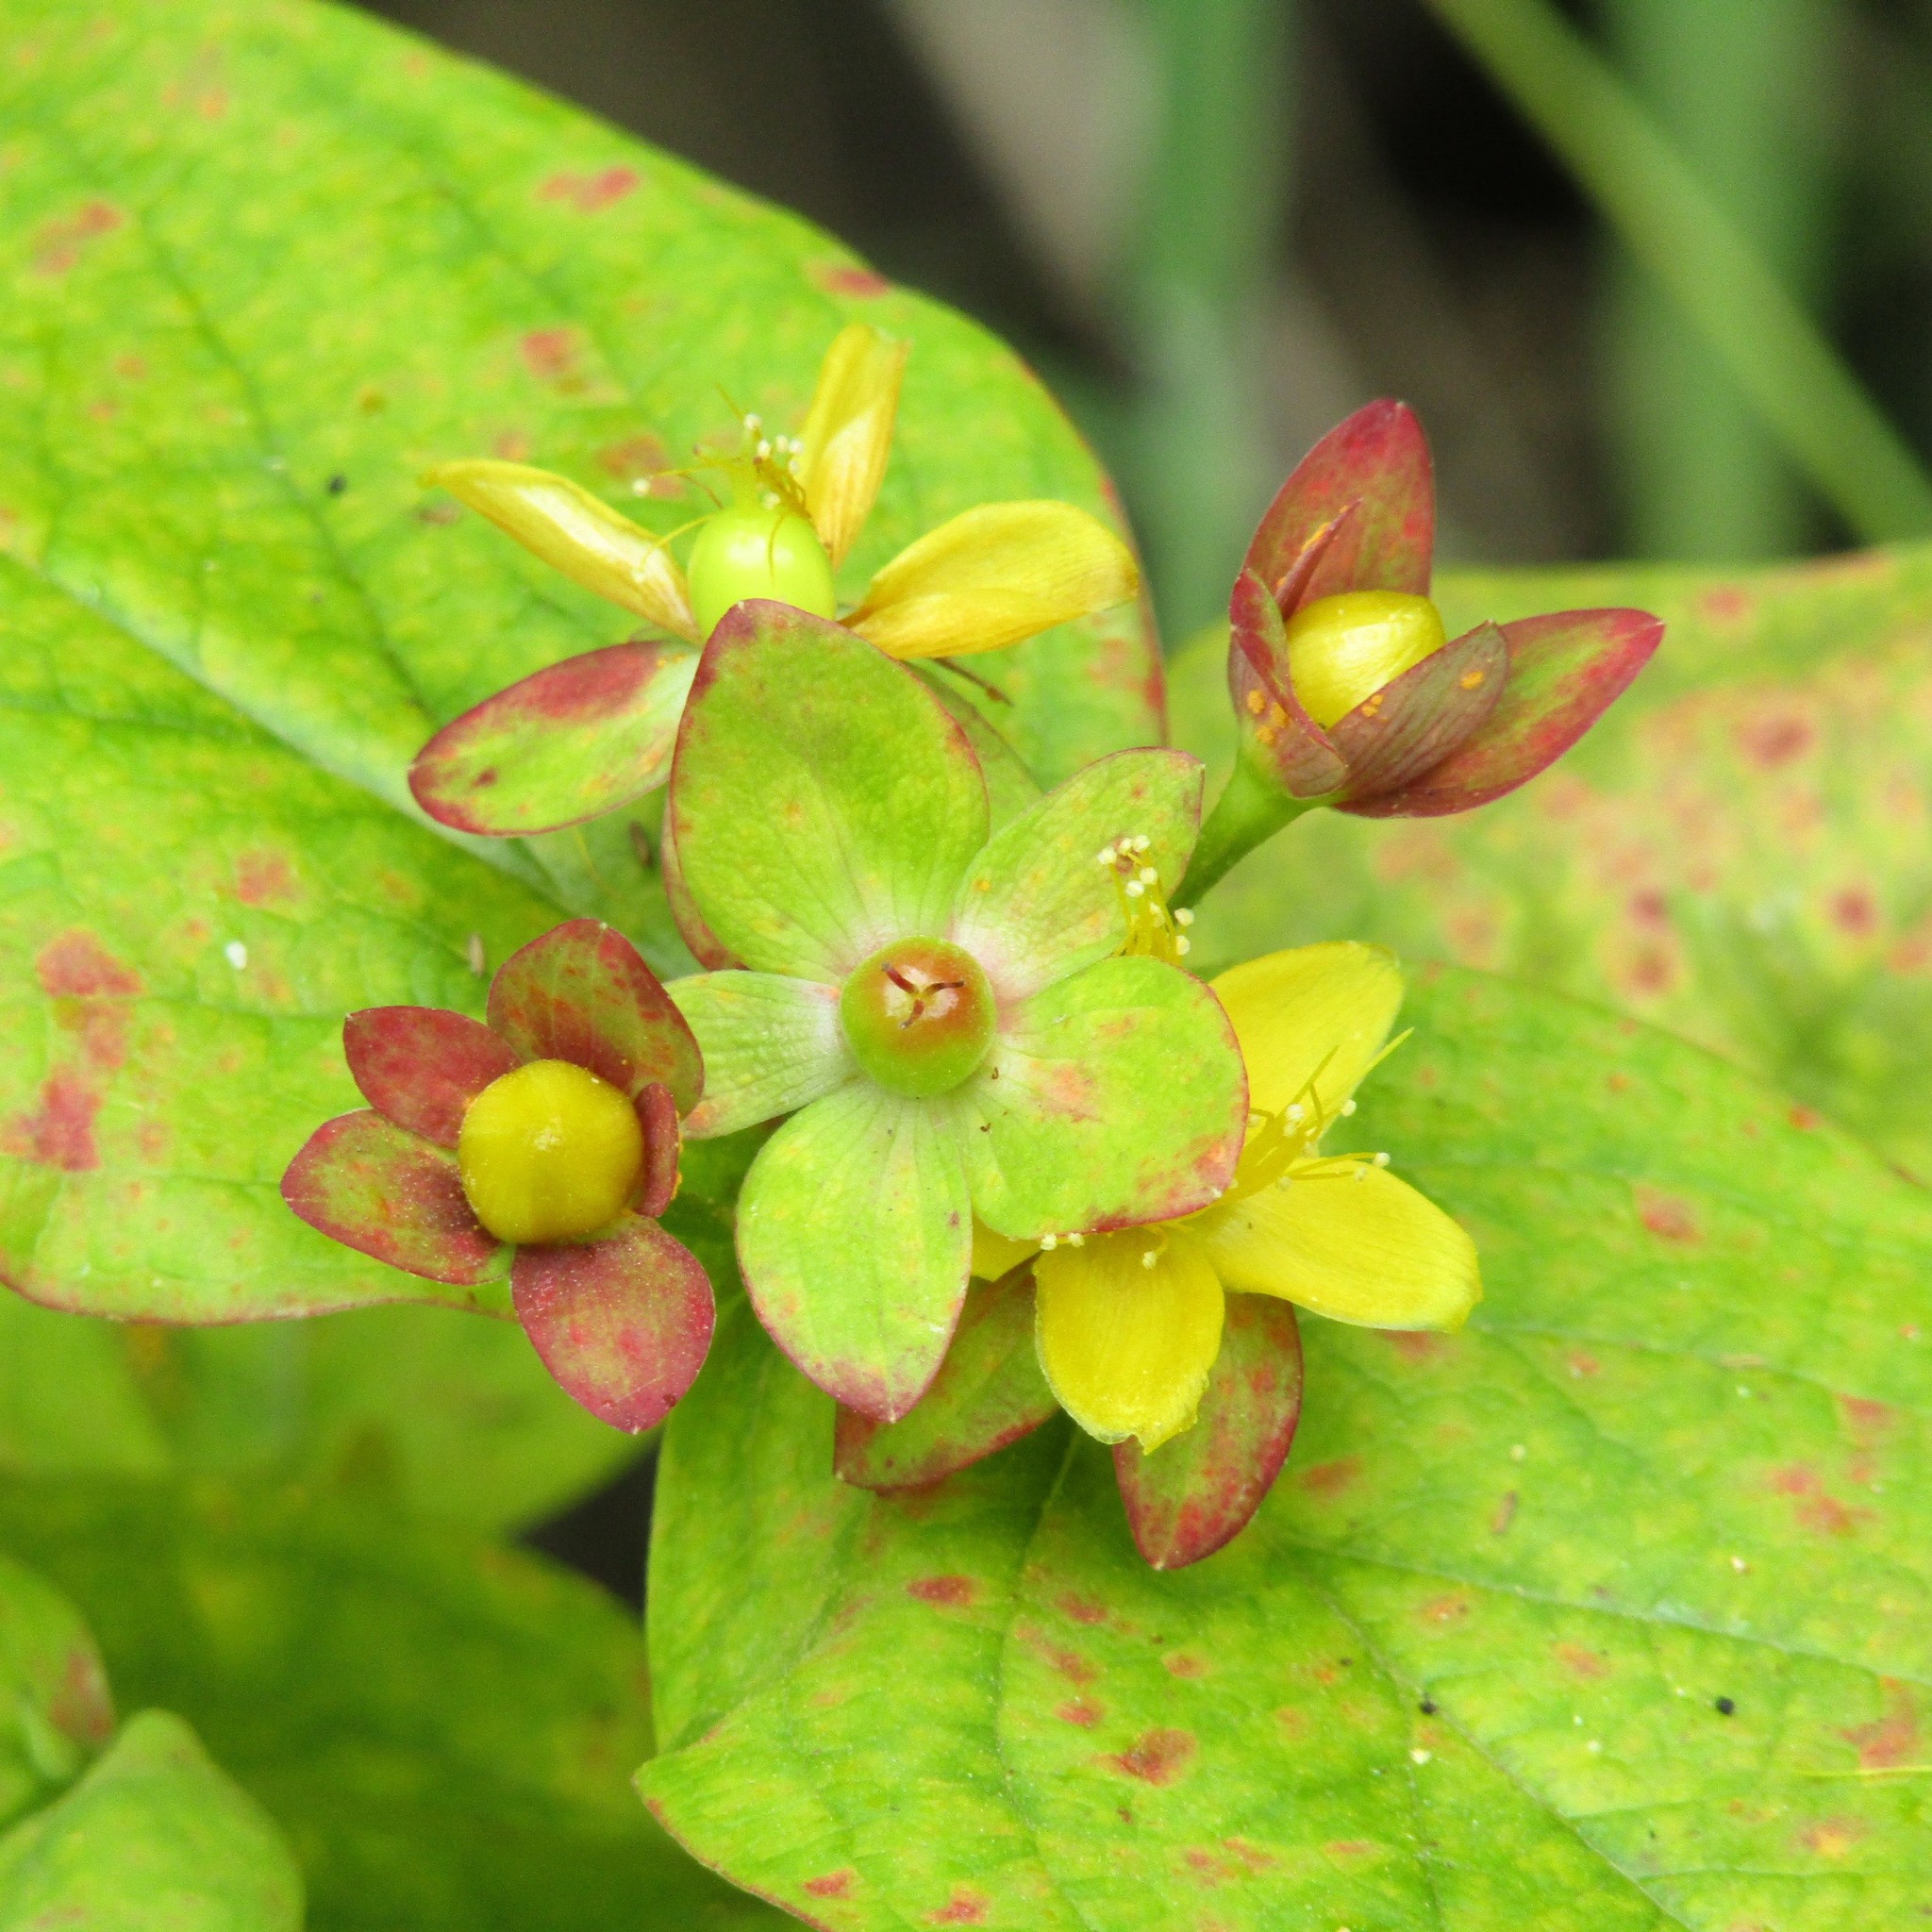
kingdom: Plantae
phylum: Tracheophyta
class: Magnoliopsida
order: Malpighiales
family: Hypericaceae
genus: Hypericum
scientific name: Hypericum androsaemum
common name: Sweet-amber
